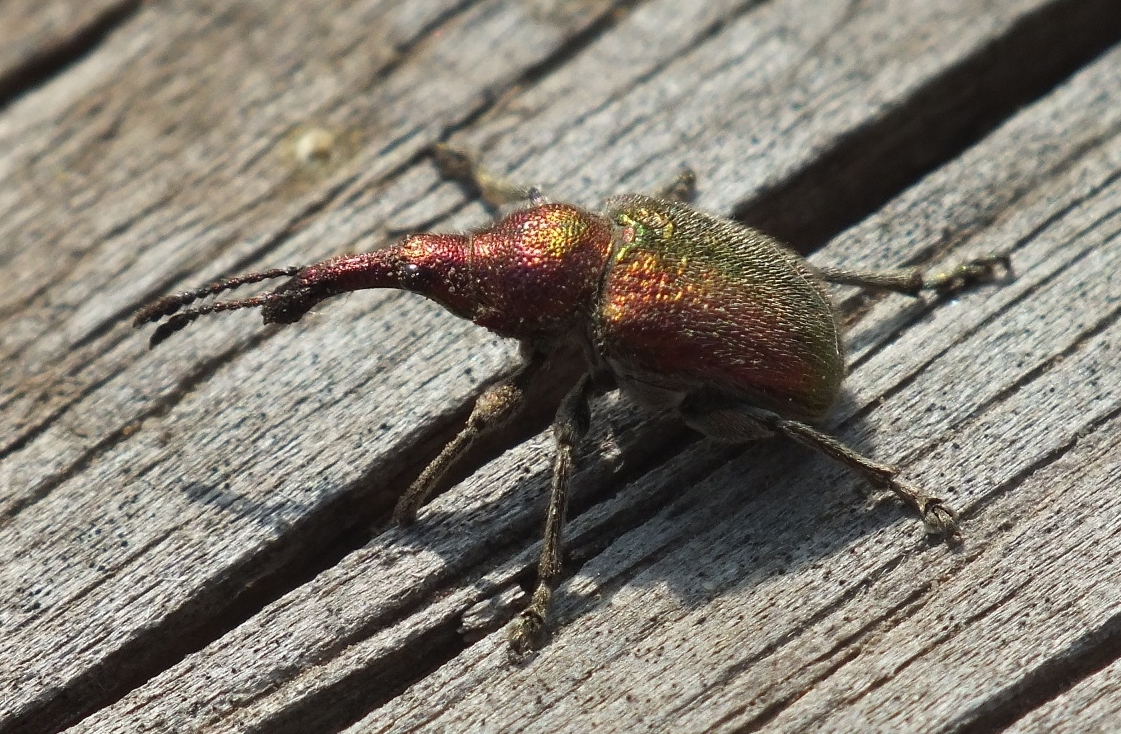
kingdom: Animalia
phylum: Arthropoda
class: Insecta
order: Coleoptera
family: Attelabidae
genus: Rhynchites
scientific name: Rhynchites giganteus
